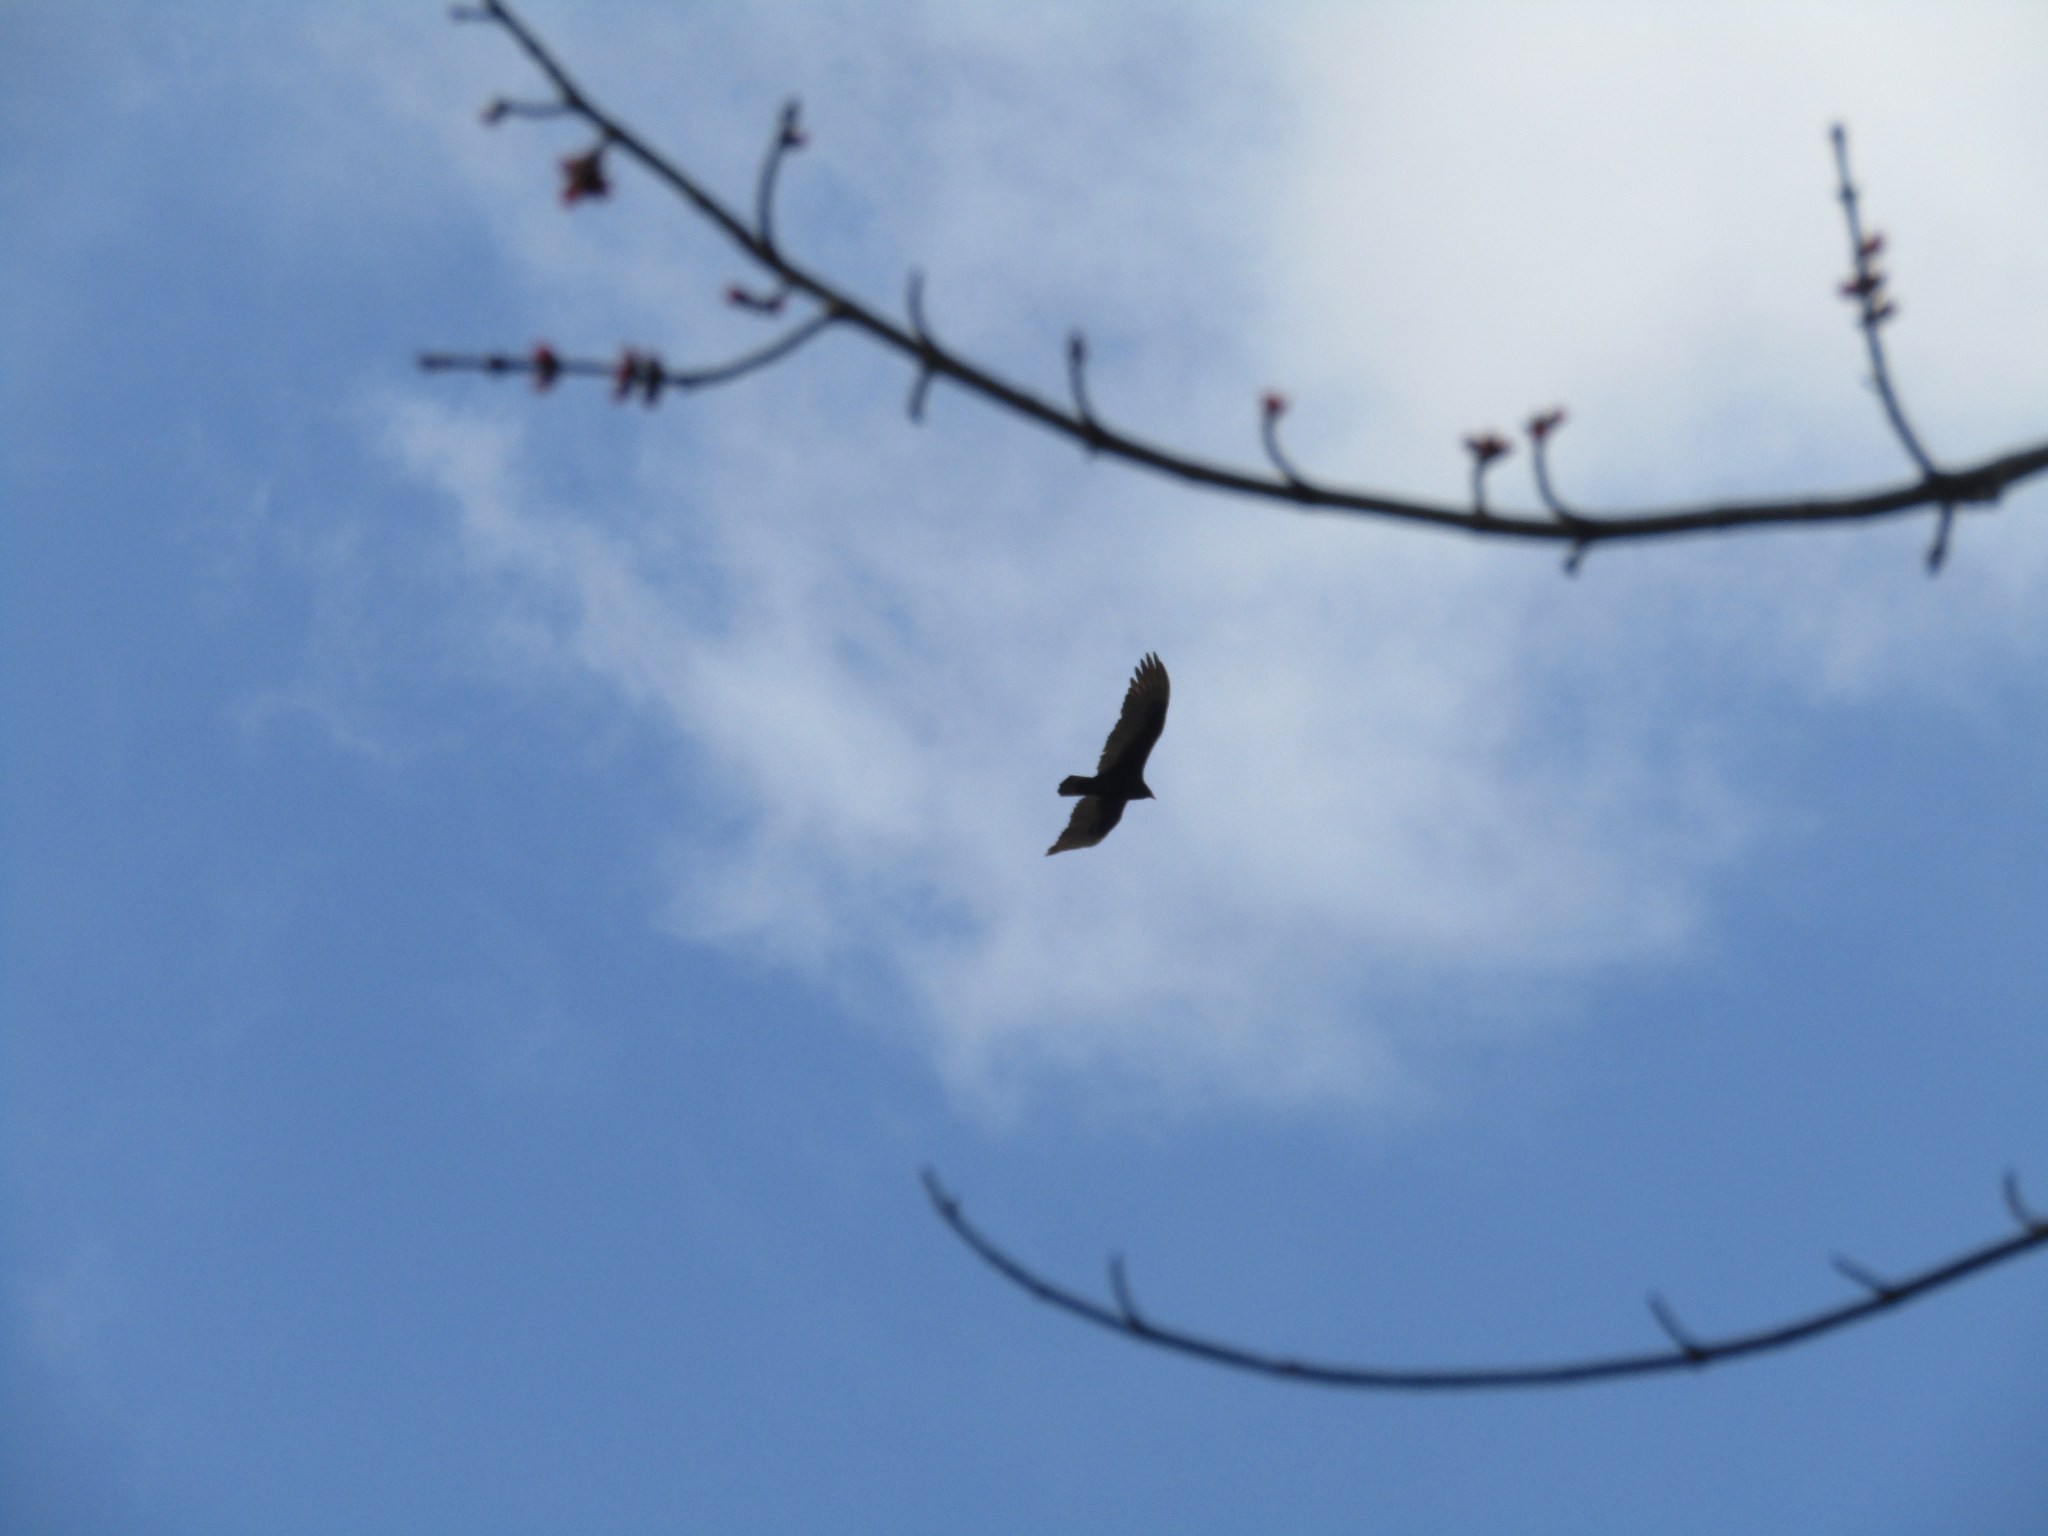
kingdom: Animalia
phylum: Chordata
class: Aves
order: Accipitriformes
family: Cathartidae
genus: Cathartes
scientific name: Cathartes aura
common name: Turkey vulture
